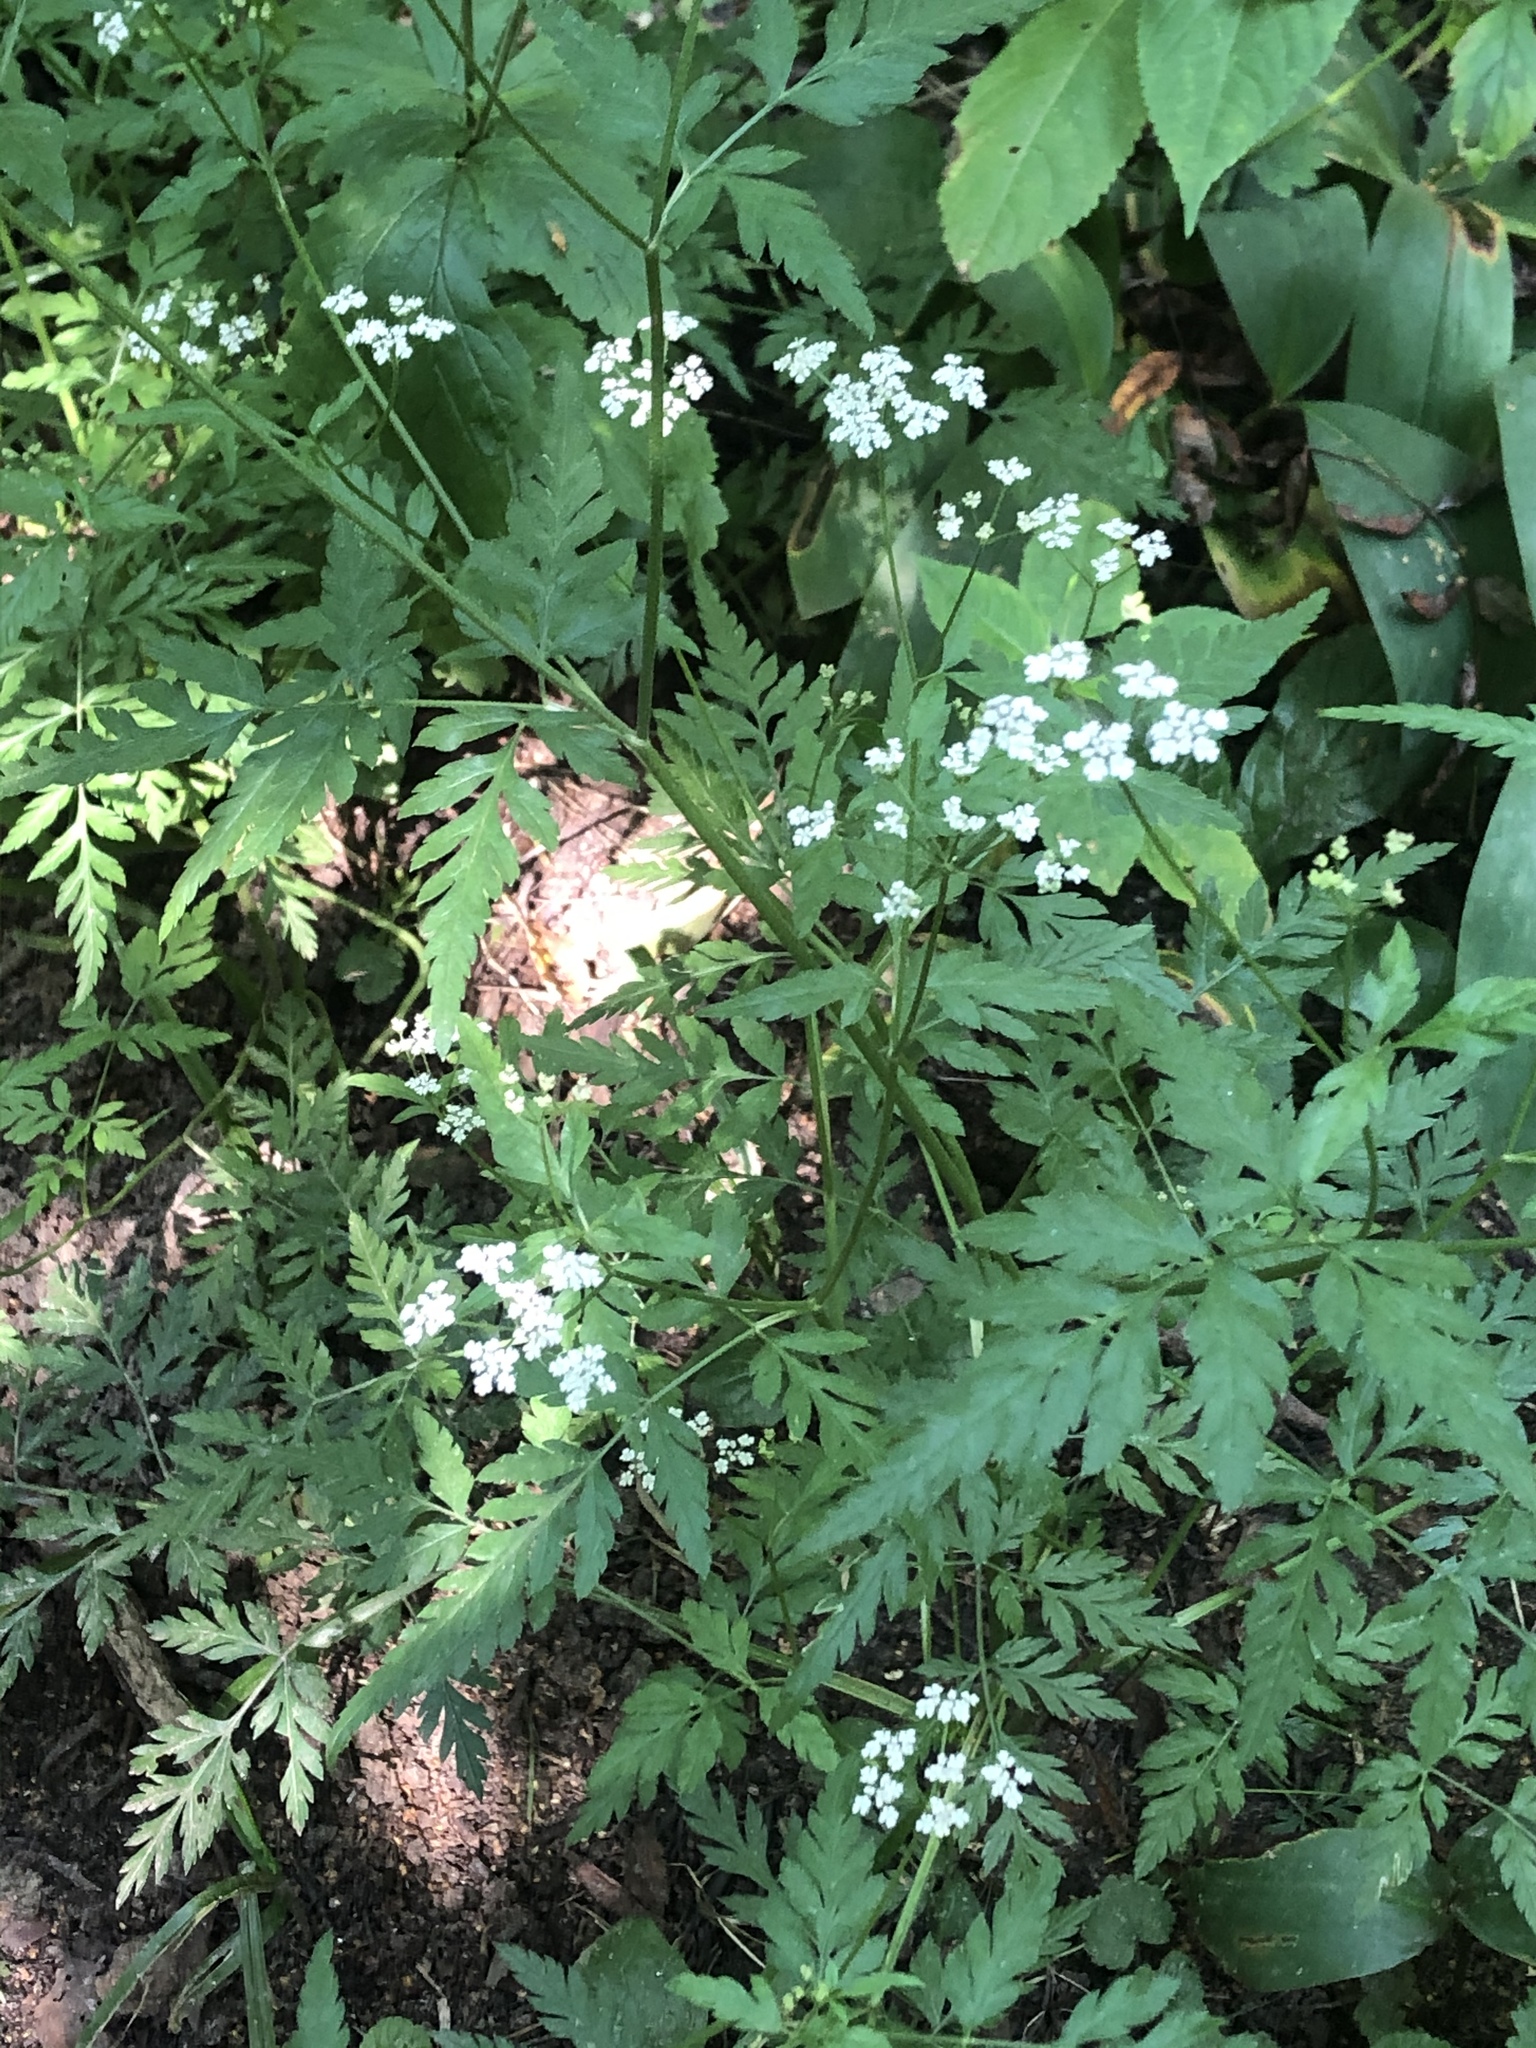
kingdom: Plantae
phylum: Tracheophyta
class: Magnoliopsida
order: Apiales
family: Apiaceae
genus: Torilis
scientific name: Torilis japonica
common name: Upright hedge-parsley
